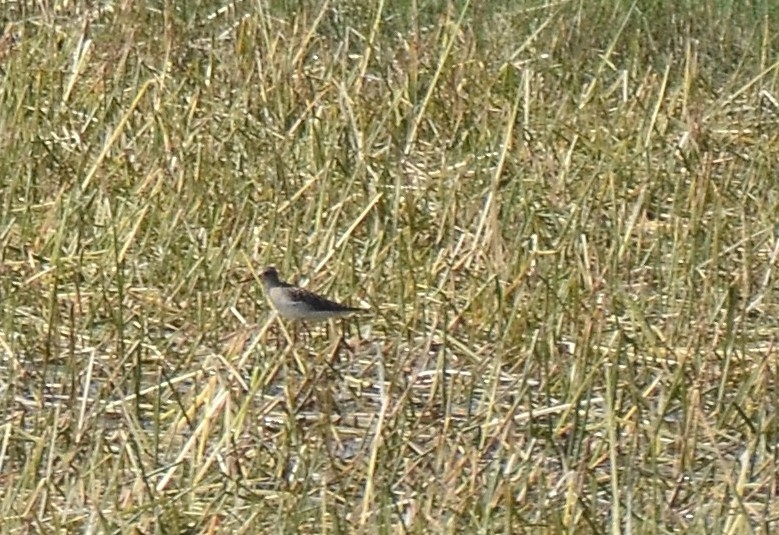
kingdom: Animalia
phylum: Chordata
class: Aves
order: Charadriiformes
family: Scolopacidae
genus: Tringa
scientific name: Tringa glareola
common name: Wood sandpiper
